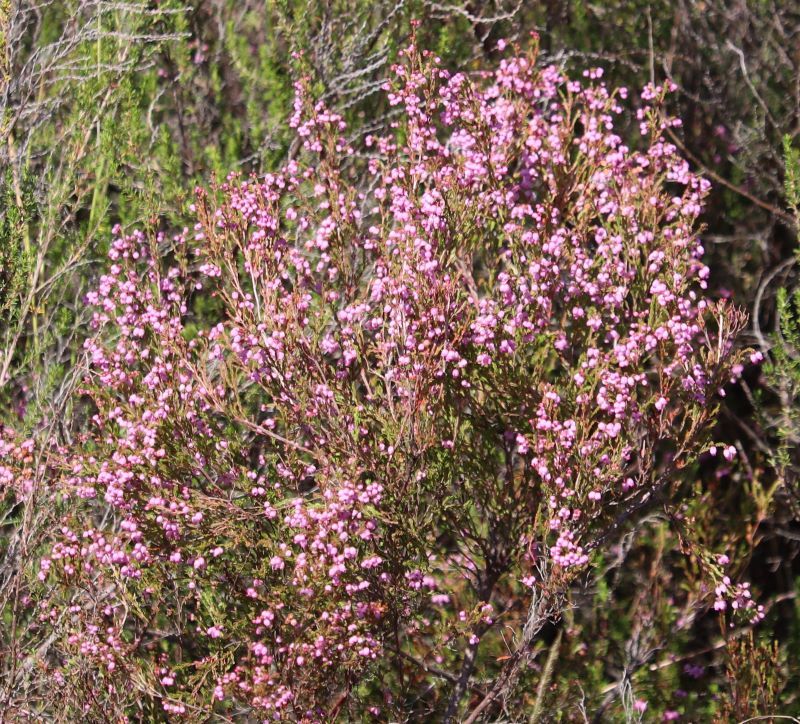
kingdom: Plantae
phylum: Tracheophyta
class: Magnoliopsida
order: Ericales
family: Ericaceae
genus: Erica
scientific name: Erica gracilis
